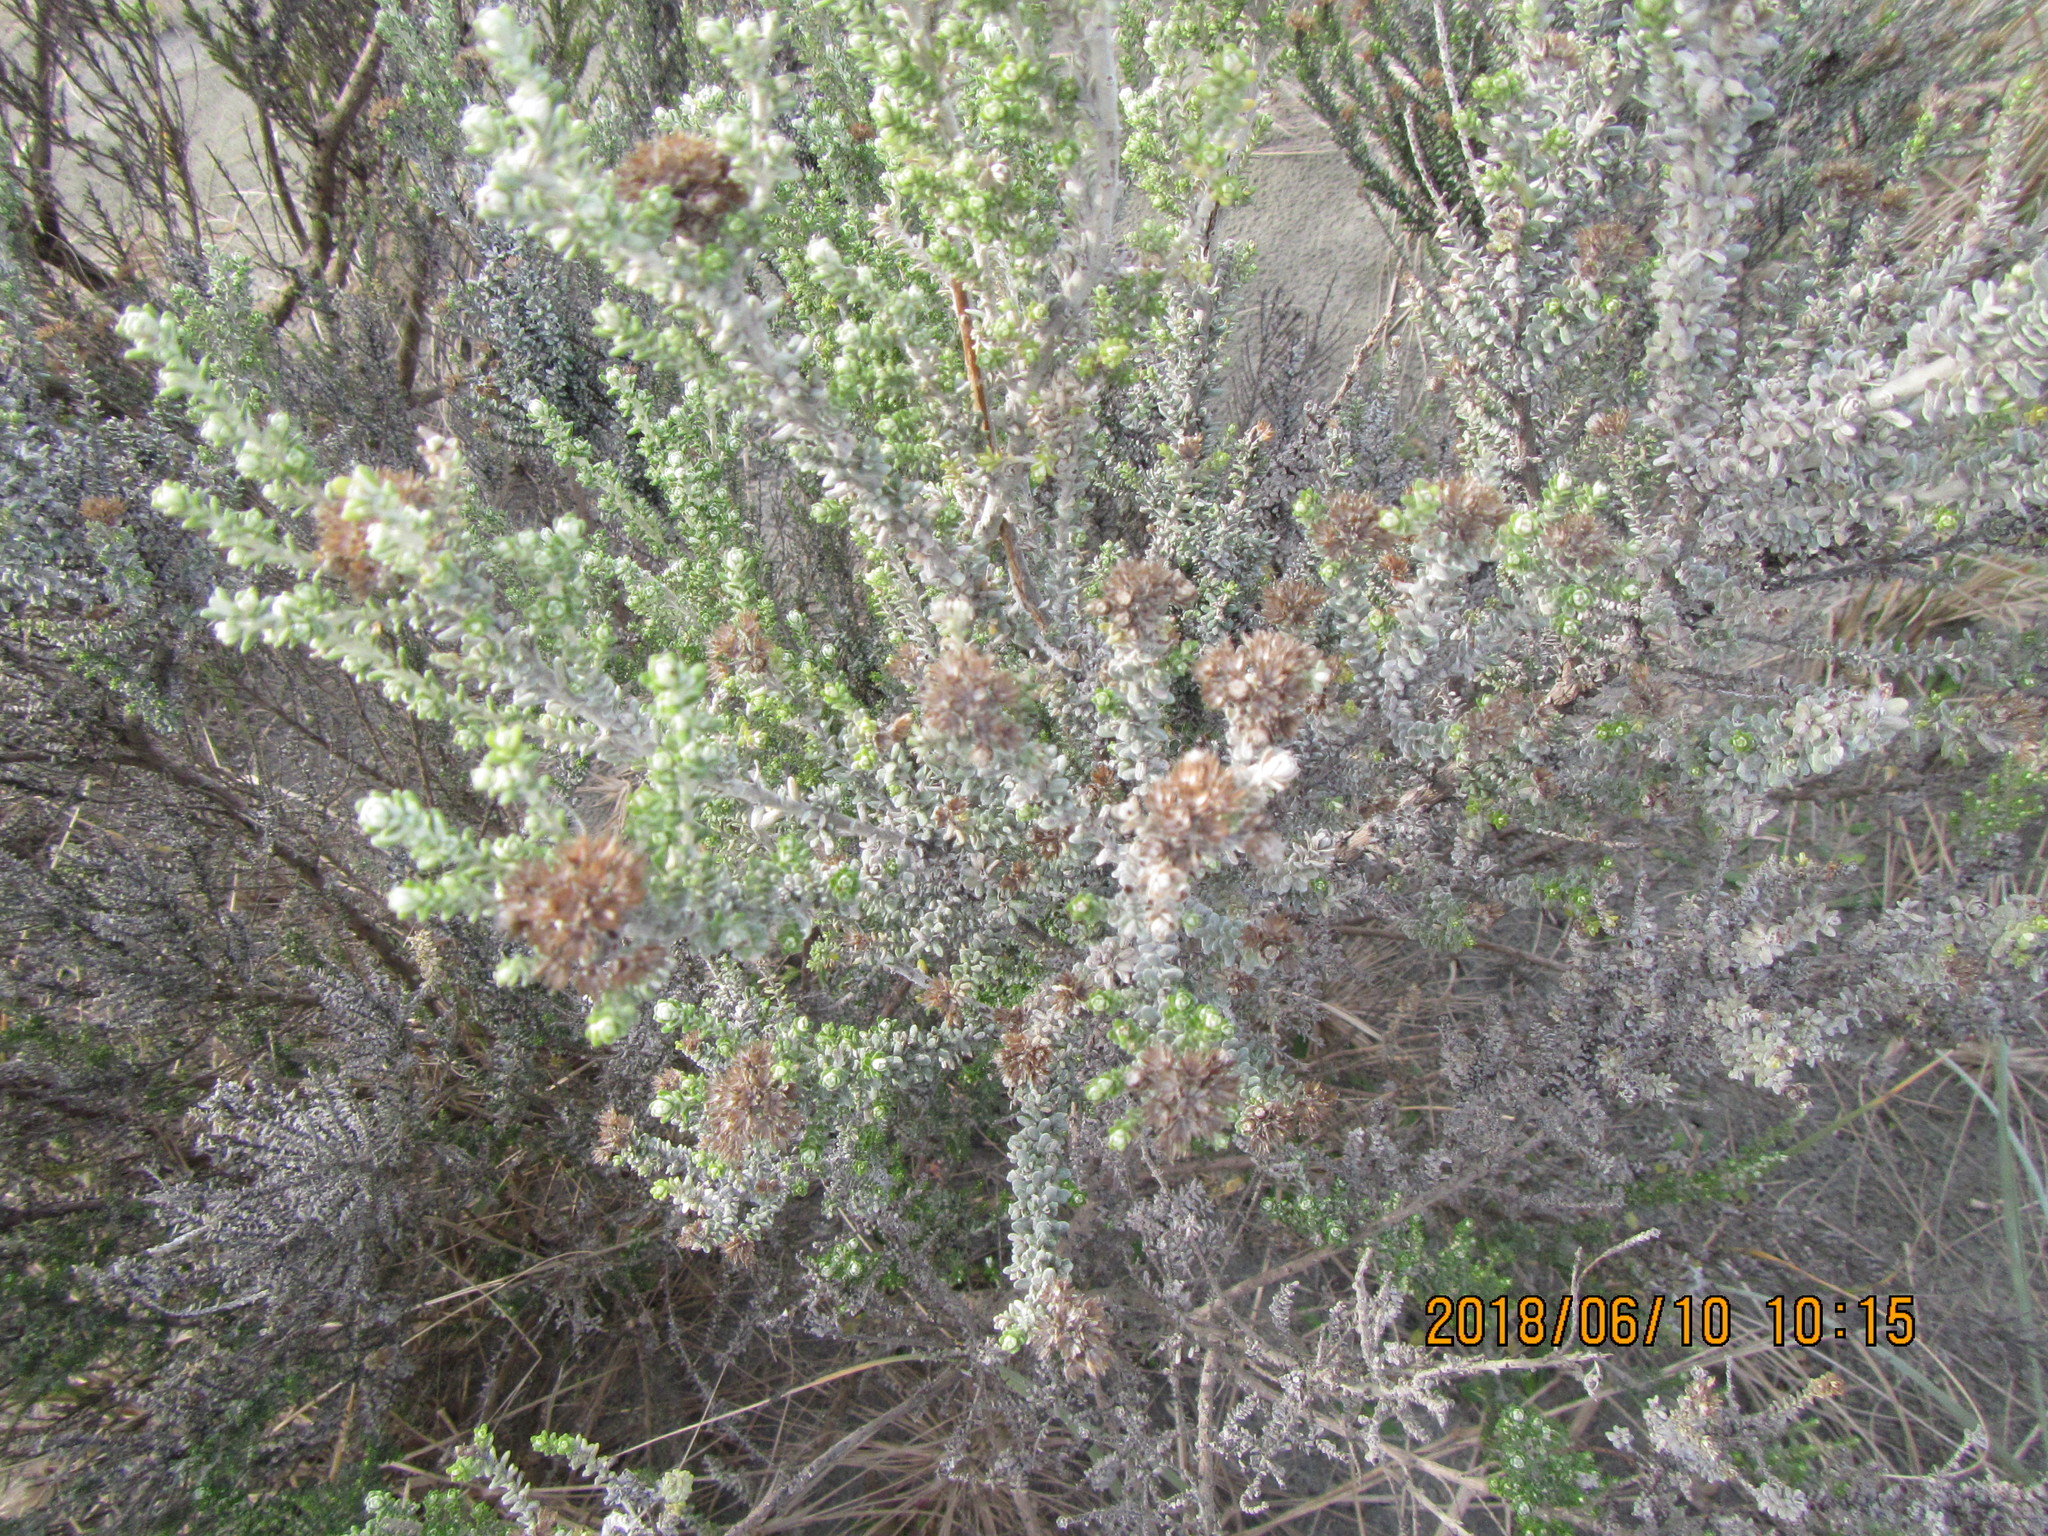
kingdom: Plantae
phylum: Tracheophyta
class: Magnoliopsida
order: Asterales
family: Asteraceae
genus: Ozothamnus
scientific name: Ozothamnus leptophyllus
